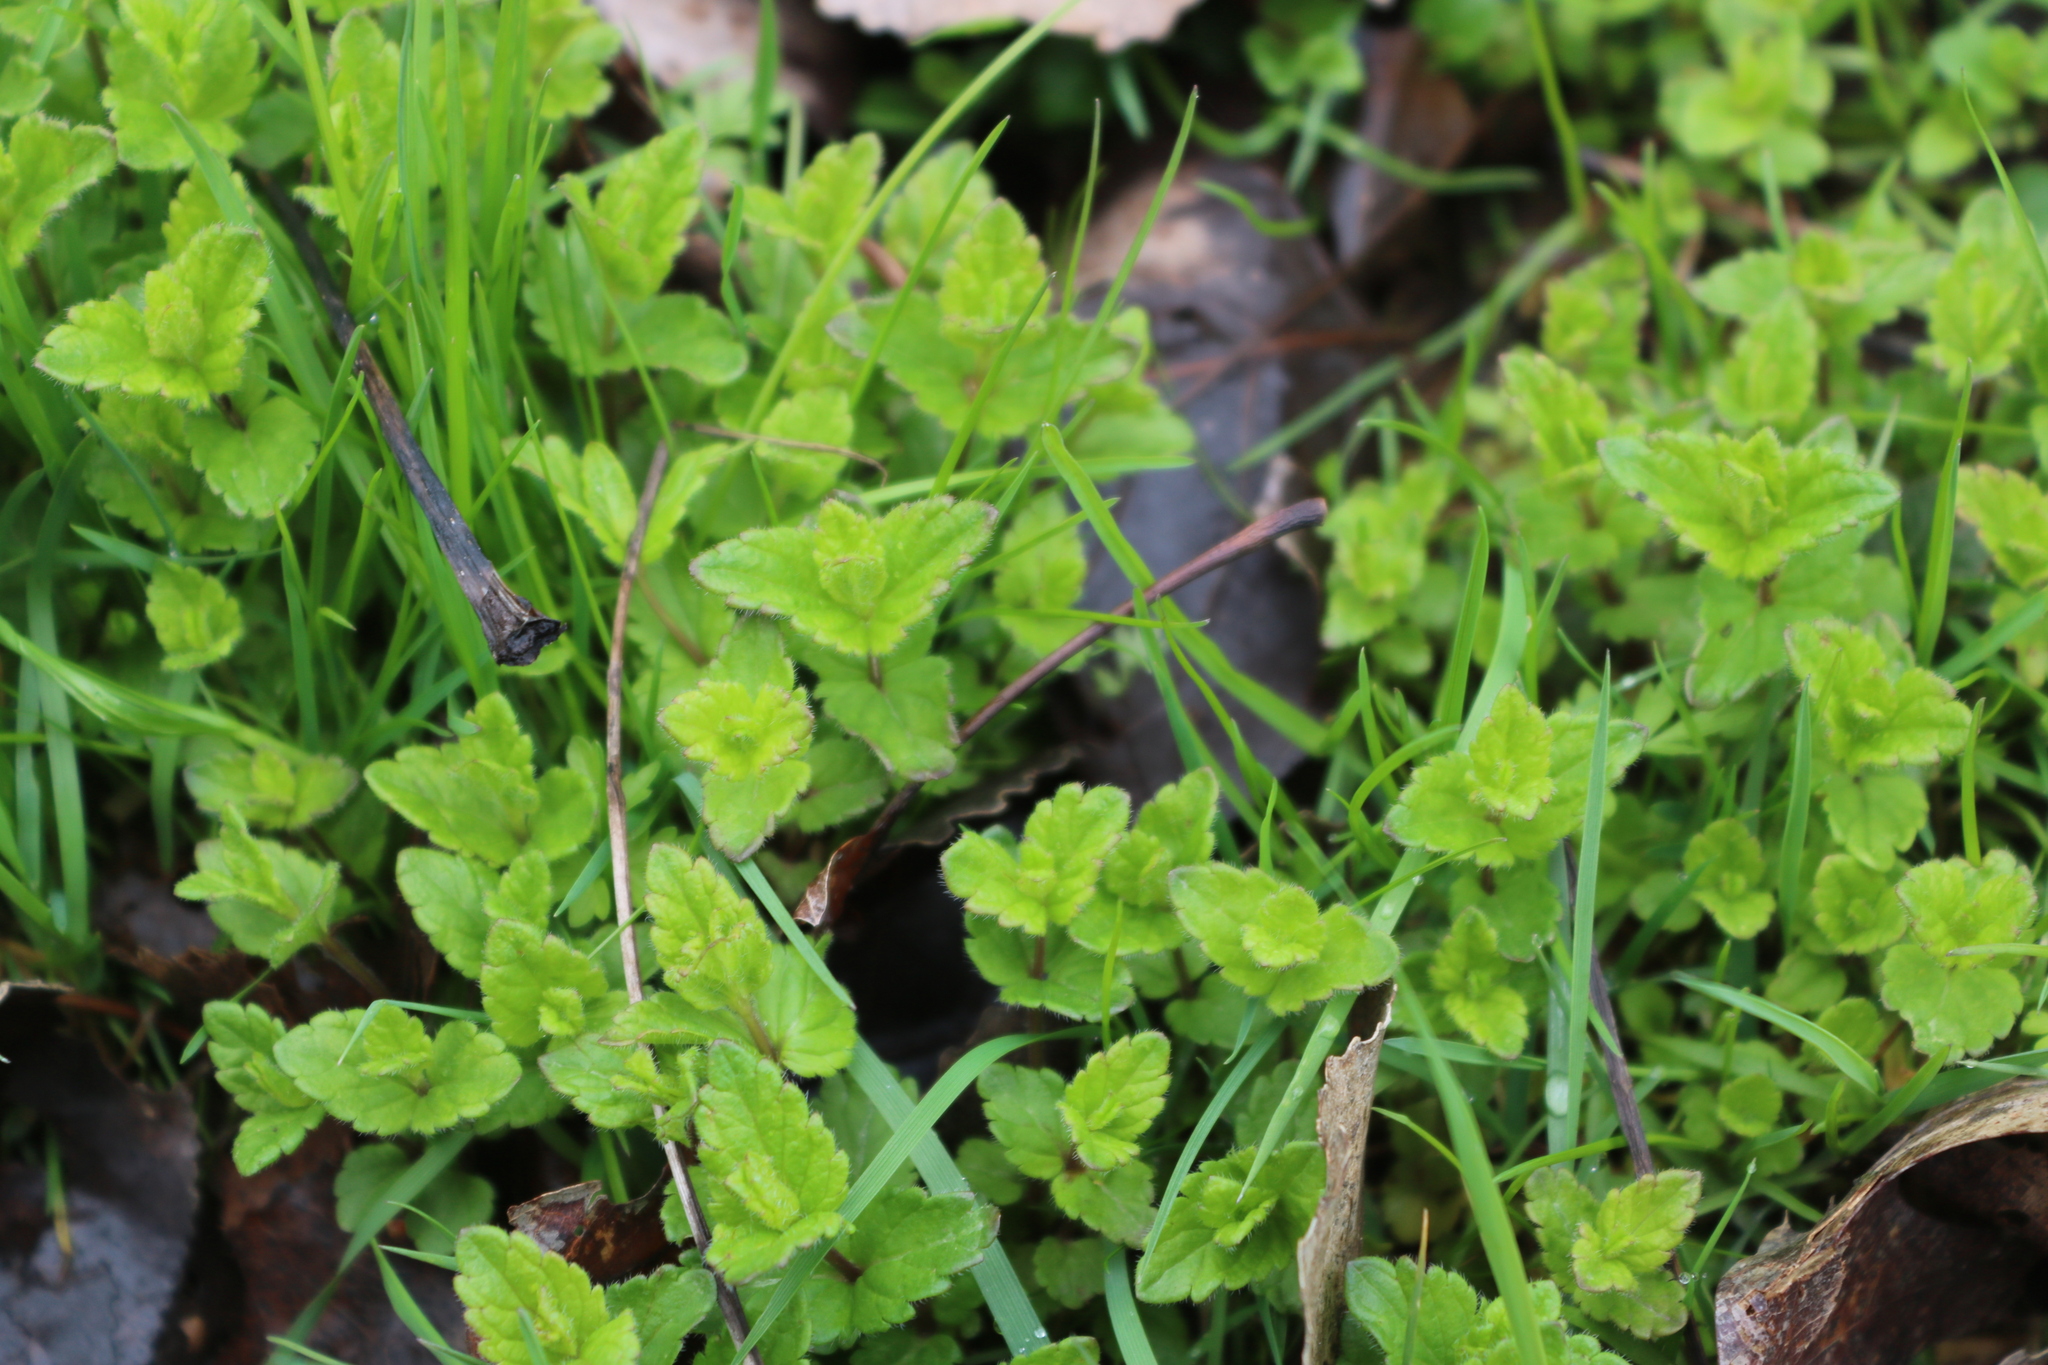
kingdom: Plantae
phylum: Tracheophyta
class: Magnoliopsida
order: Lamiales
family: Plantaginaceae
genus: Veronica
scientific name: Veronica chamaedrys
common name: Germander speedwell
